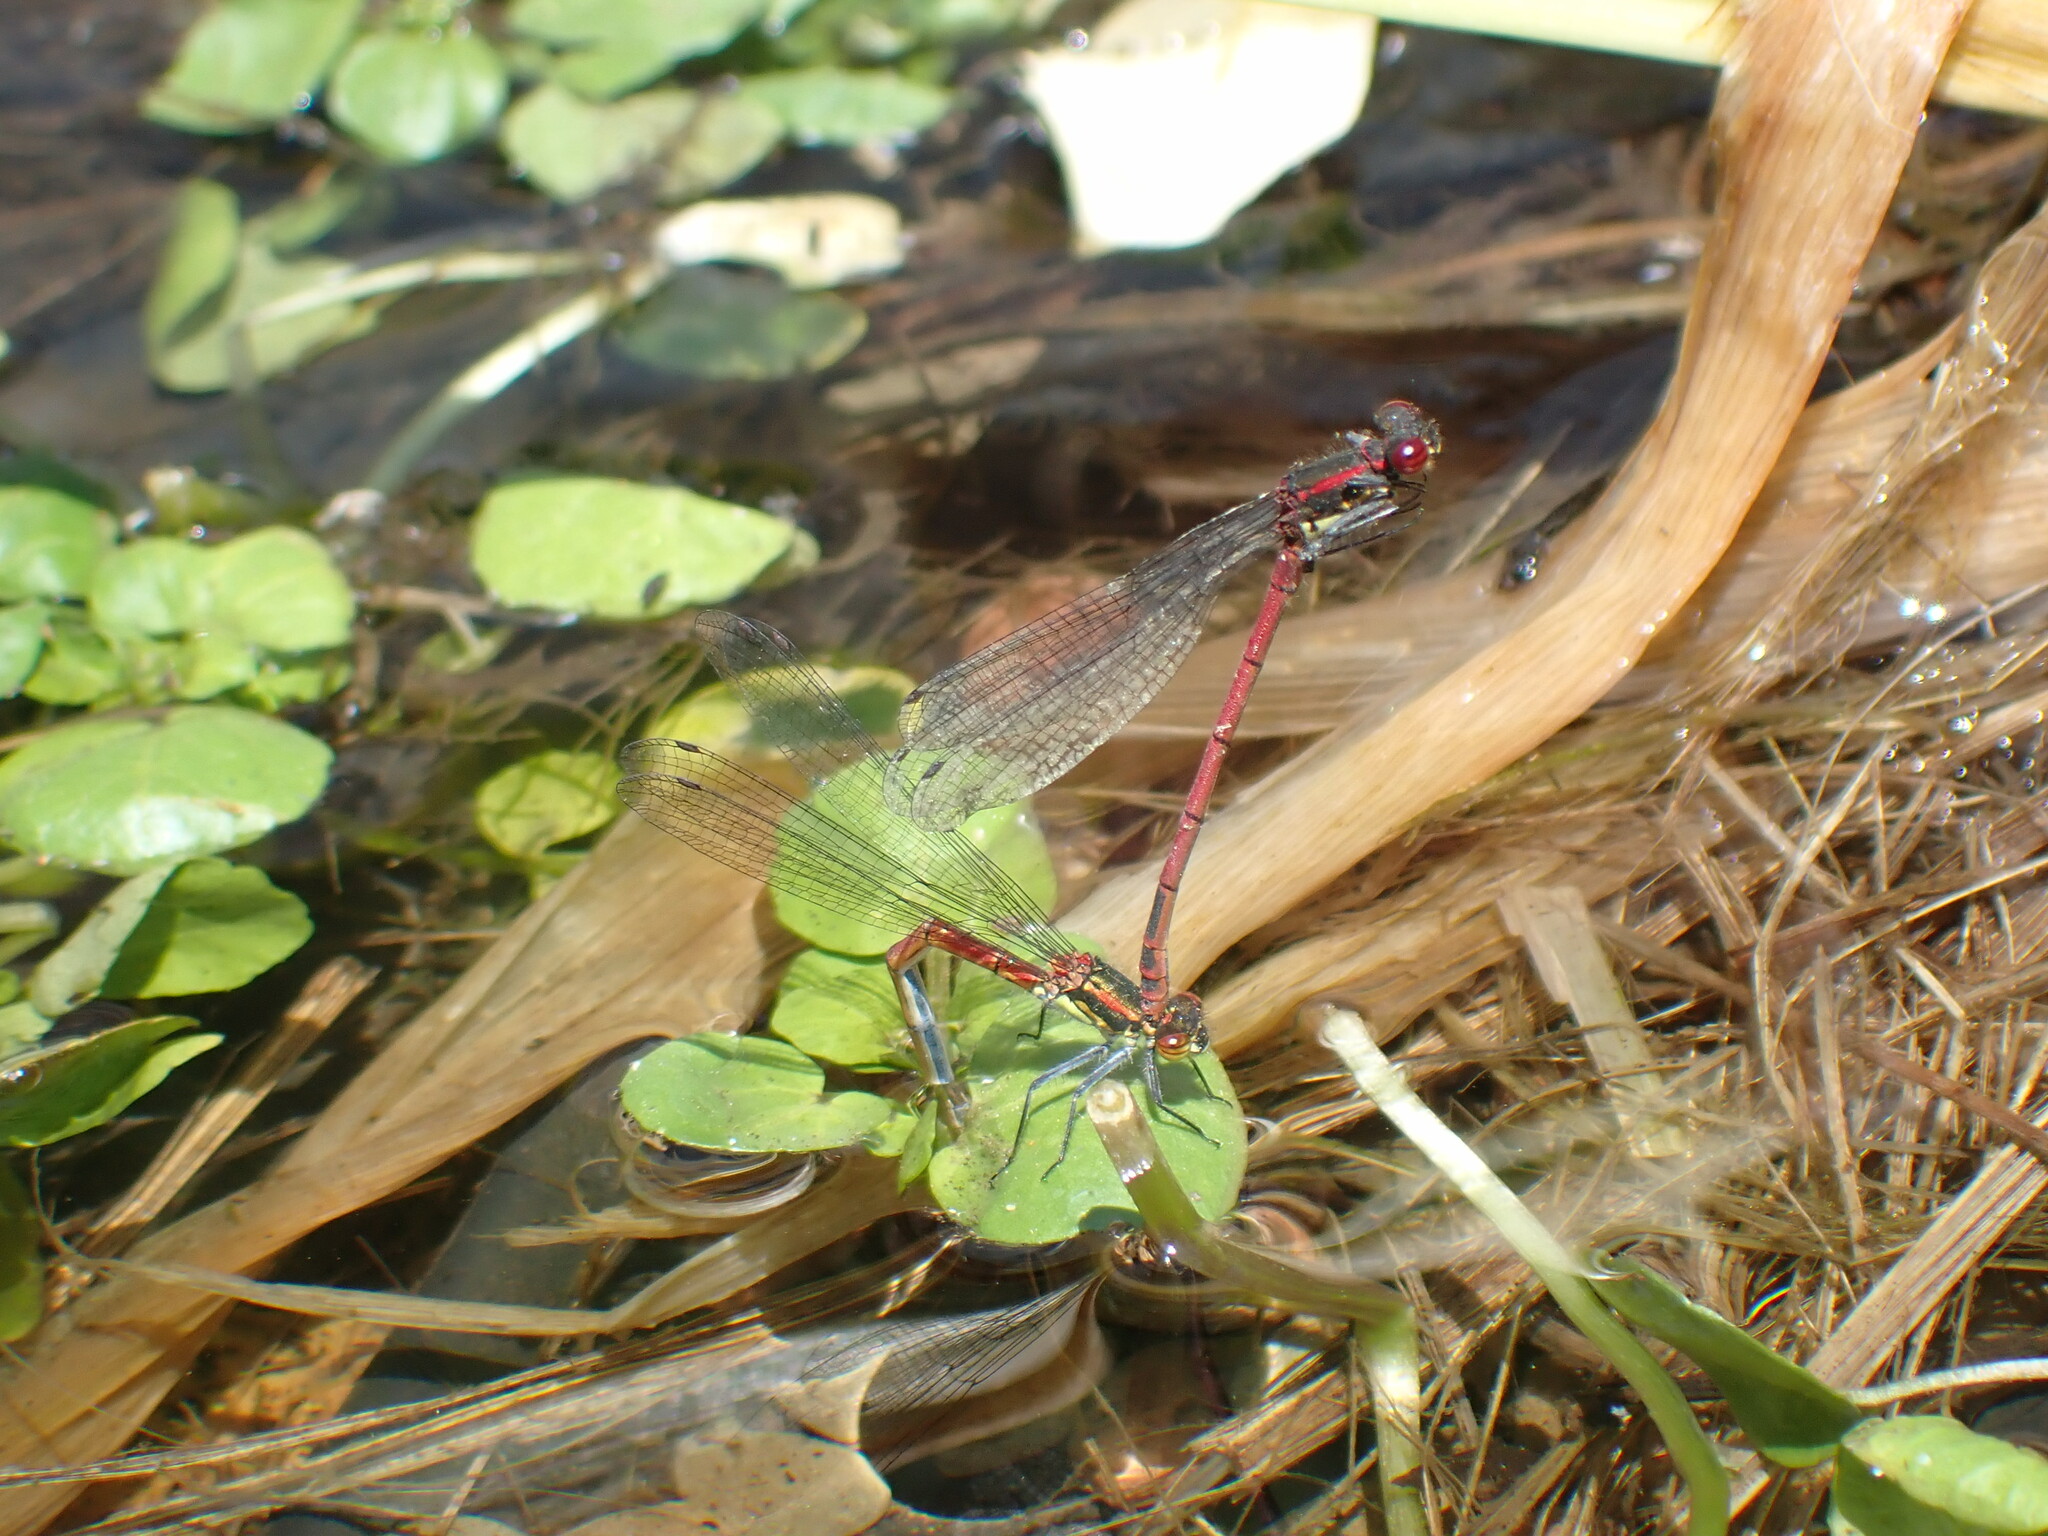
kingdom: Animalia
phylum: Arthropoda
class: Insecta
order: Odonata
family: Coenagrionidae
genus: Pyrrhosoma
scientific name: Pyrrhosoma nymphula
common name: Large red damsel
